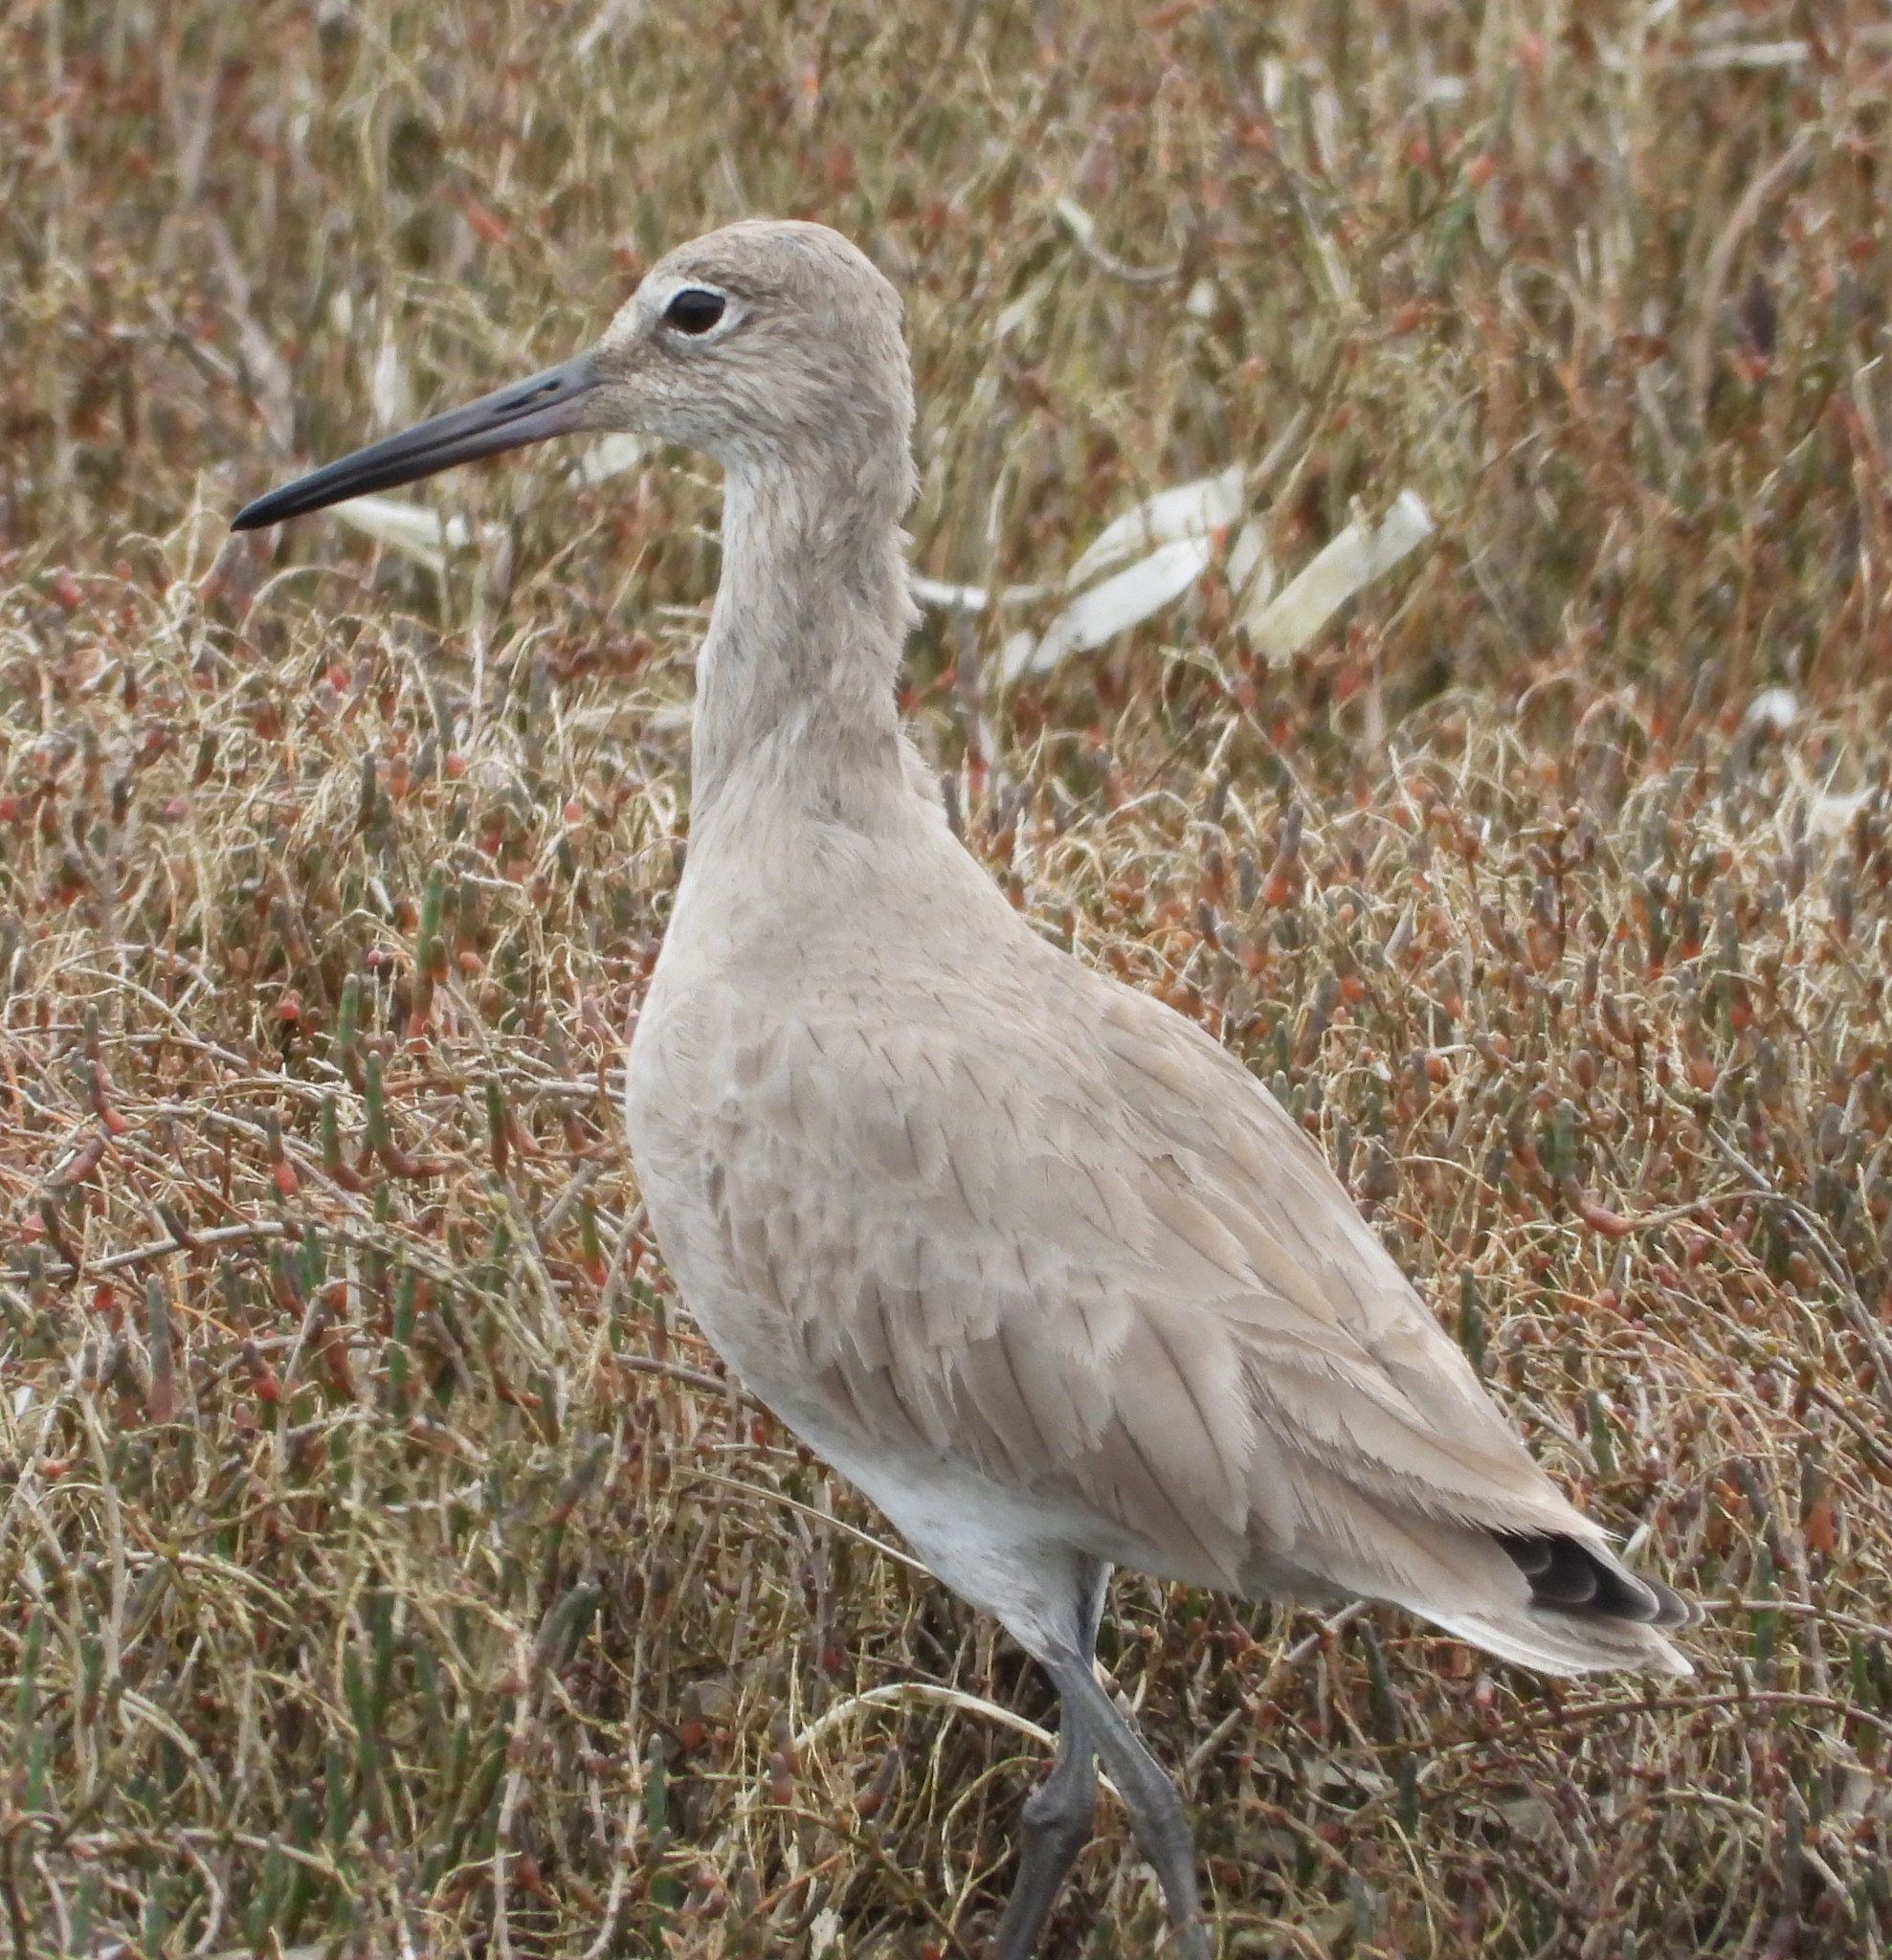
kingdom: Animalia
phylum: Chordata
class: Aves
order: Charadriiformes
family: Scolopacidae
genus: Tringa
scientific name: Tringa semipalmata
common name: Willet
